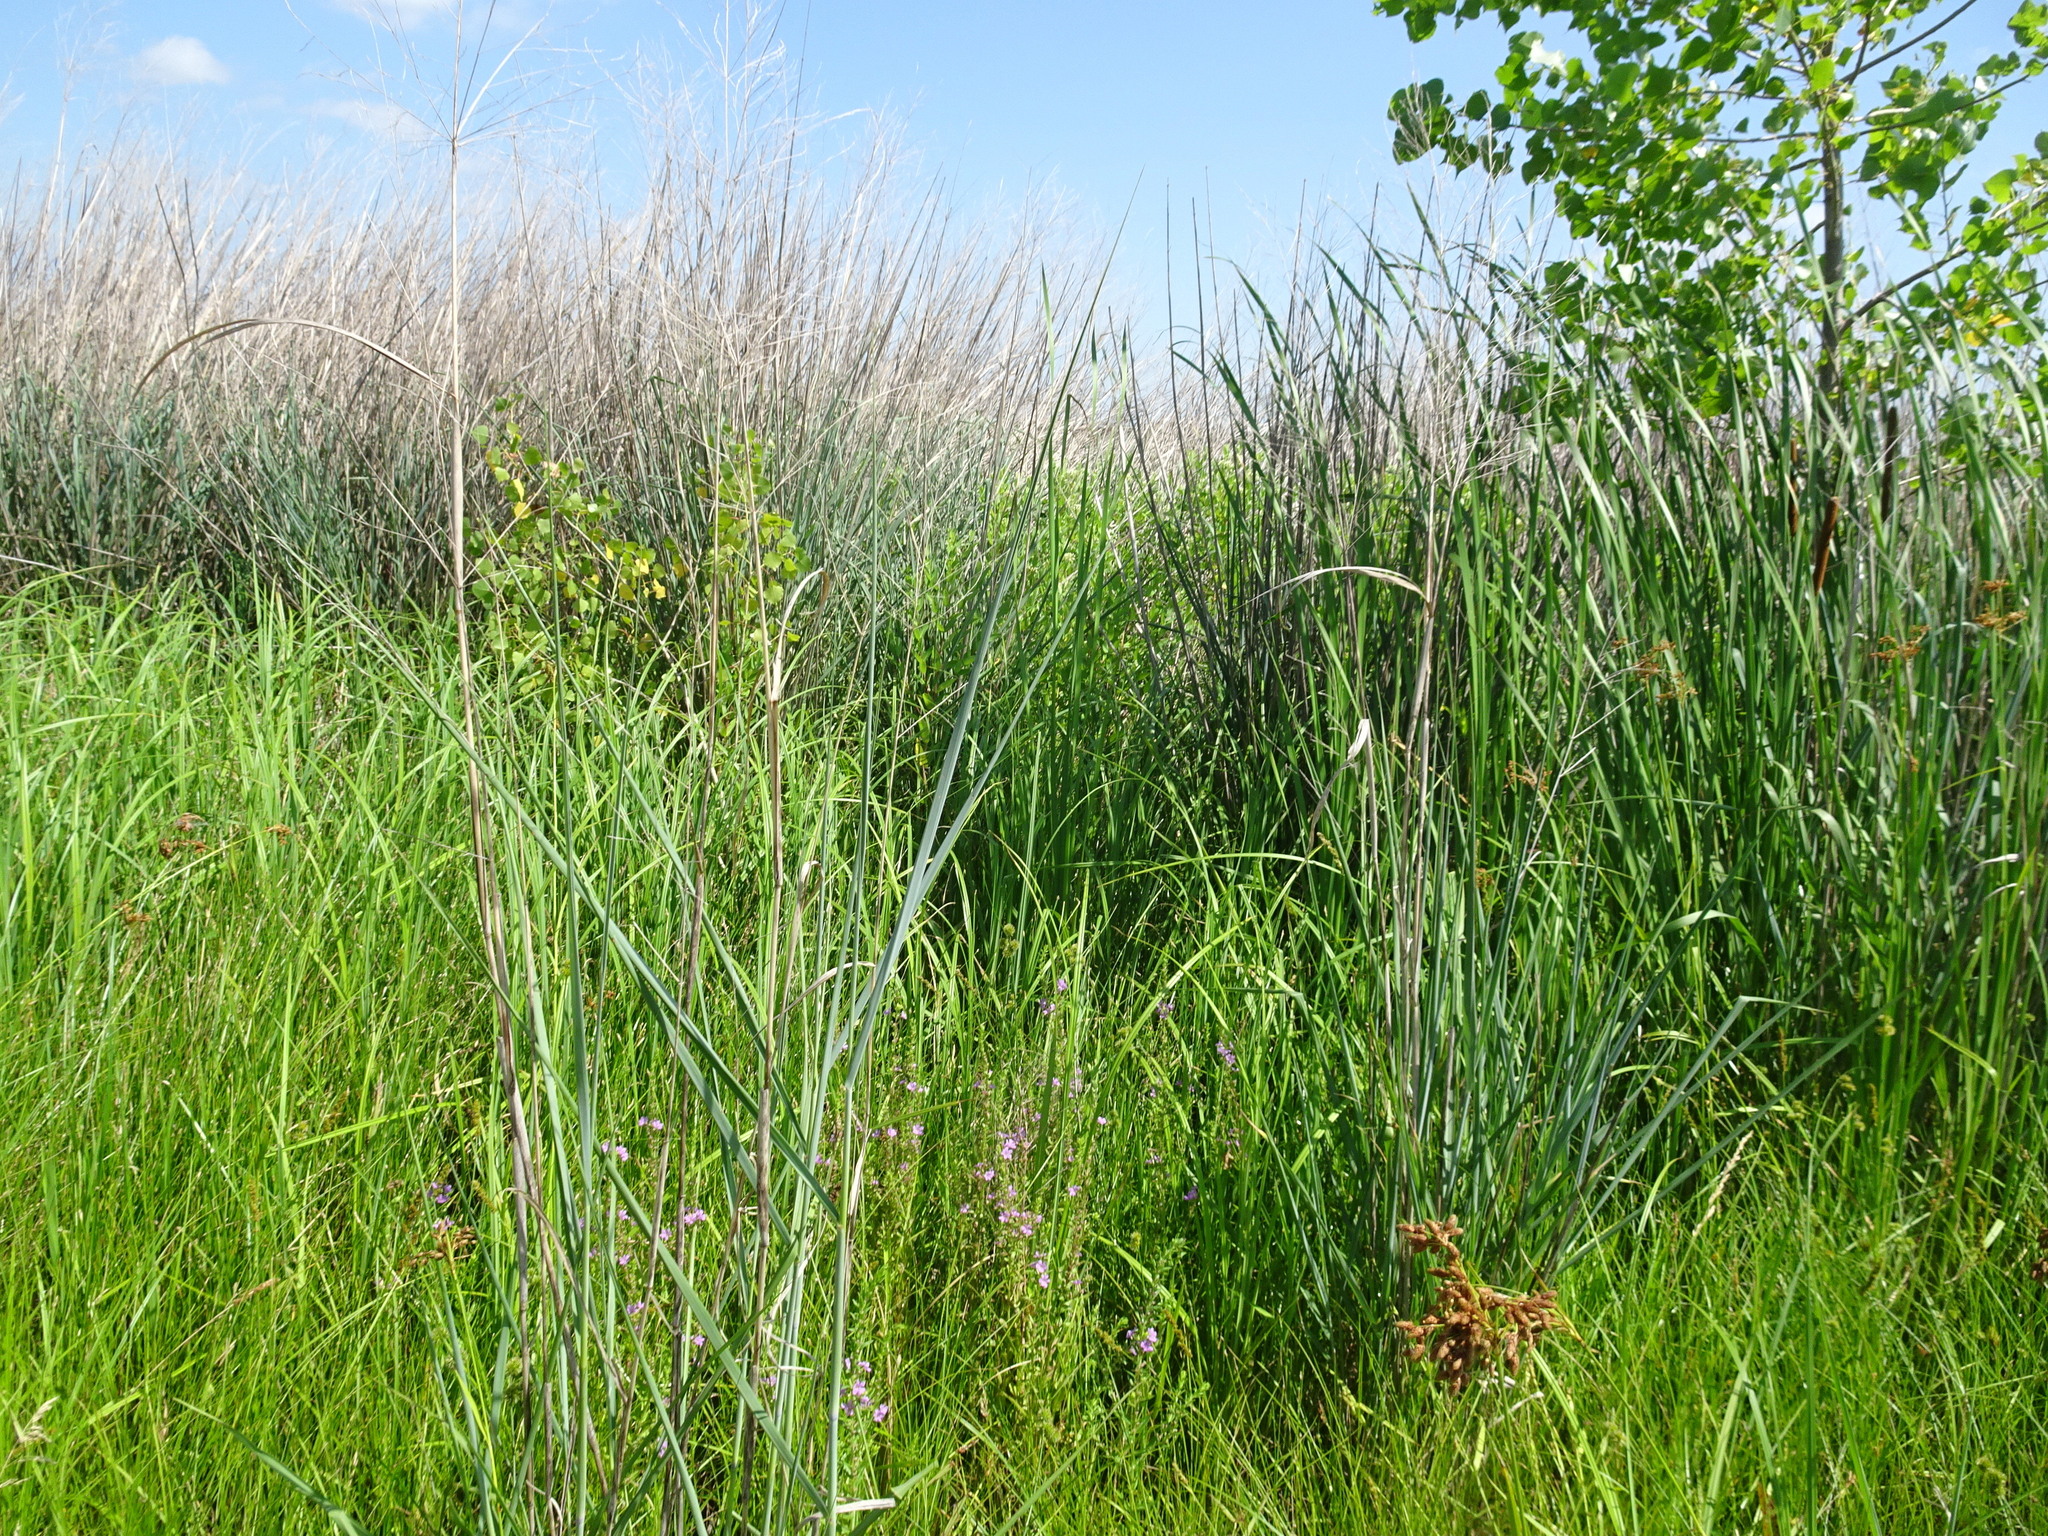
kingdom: Plantae
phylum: Tracheophyta
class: Liliopsida
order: Poales
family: Poaceae
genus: Panicum
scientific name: Panicum virgatum
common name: Switchgrass
